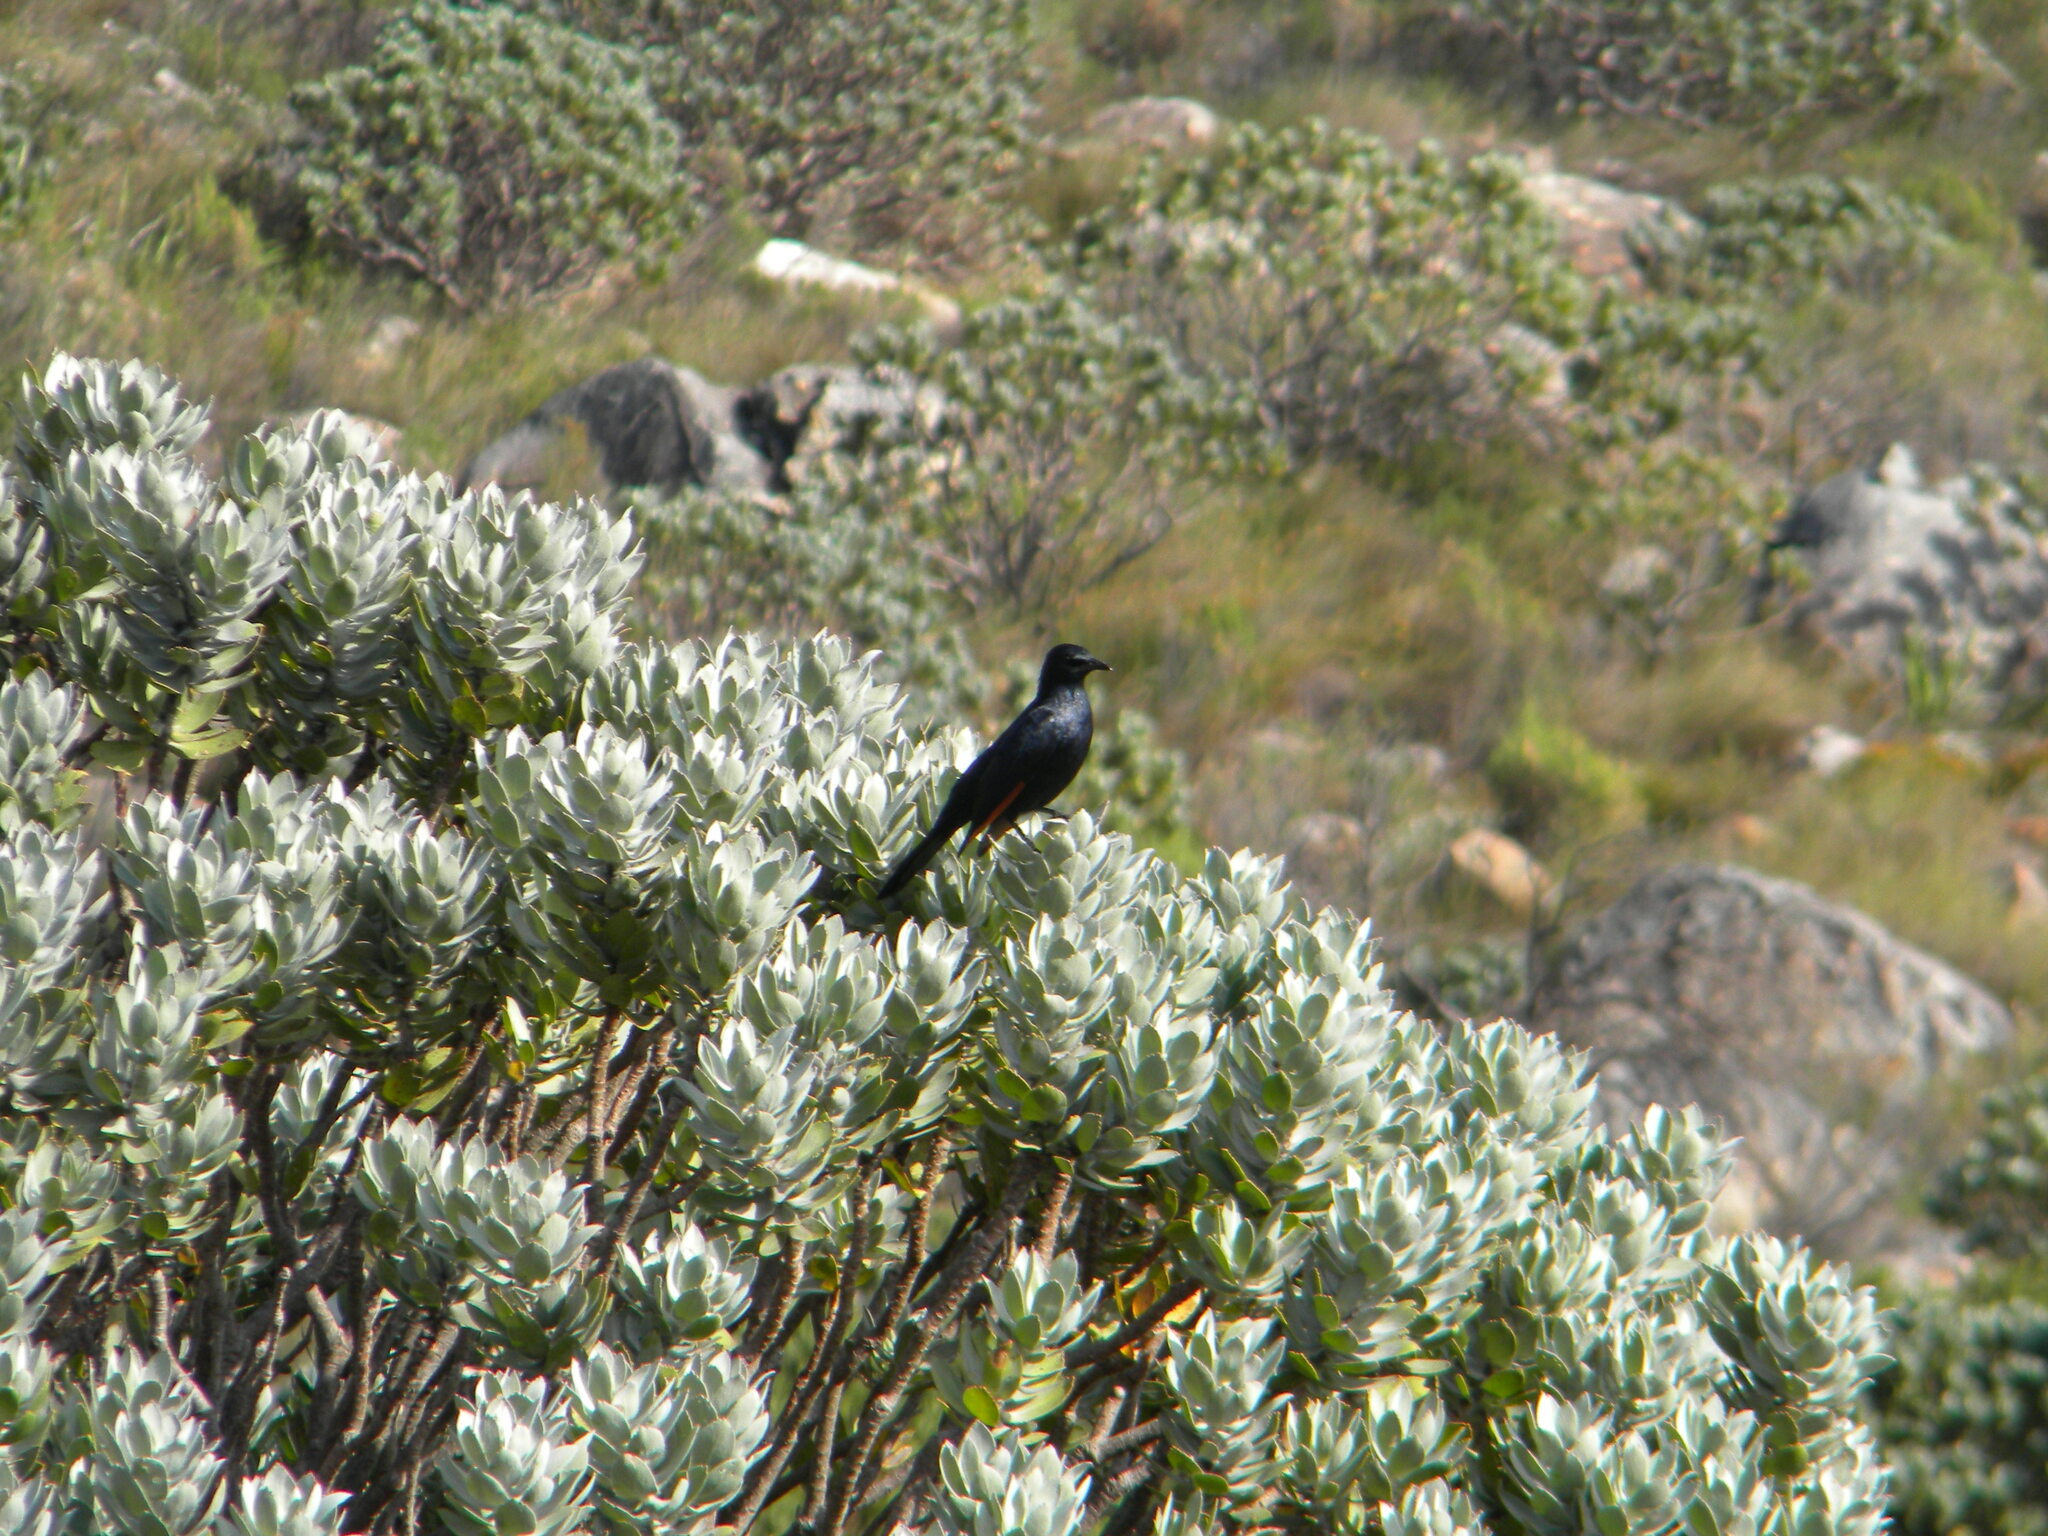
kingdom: Animalia
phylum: Chordata
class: Aves
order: Passeriformes
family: Sturnidae
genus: Onychognathus
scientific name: Onychognathus morio
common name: Red-winged starling
